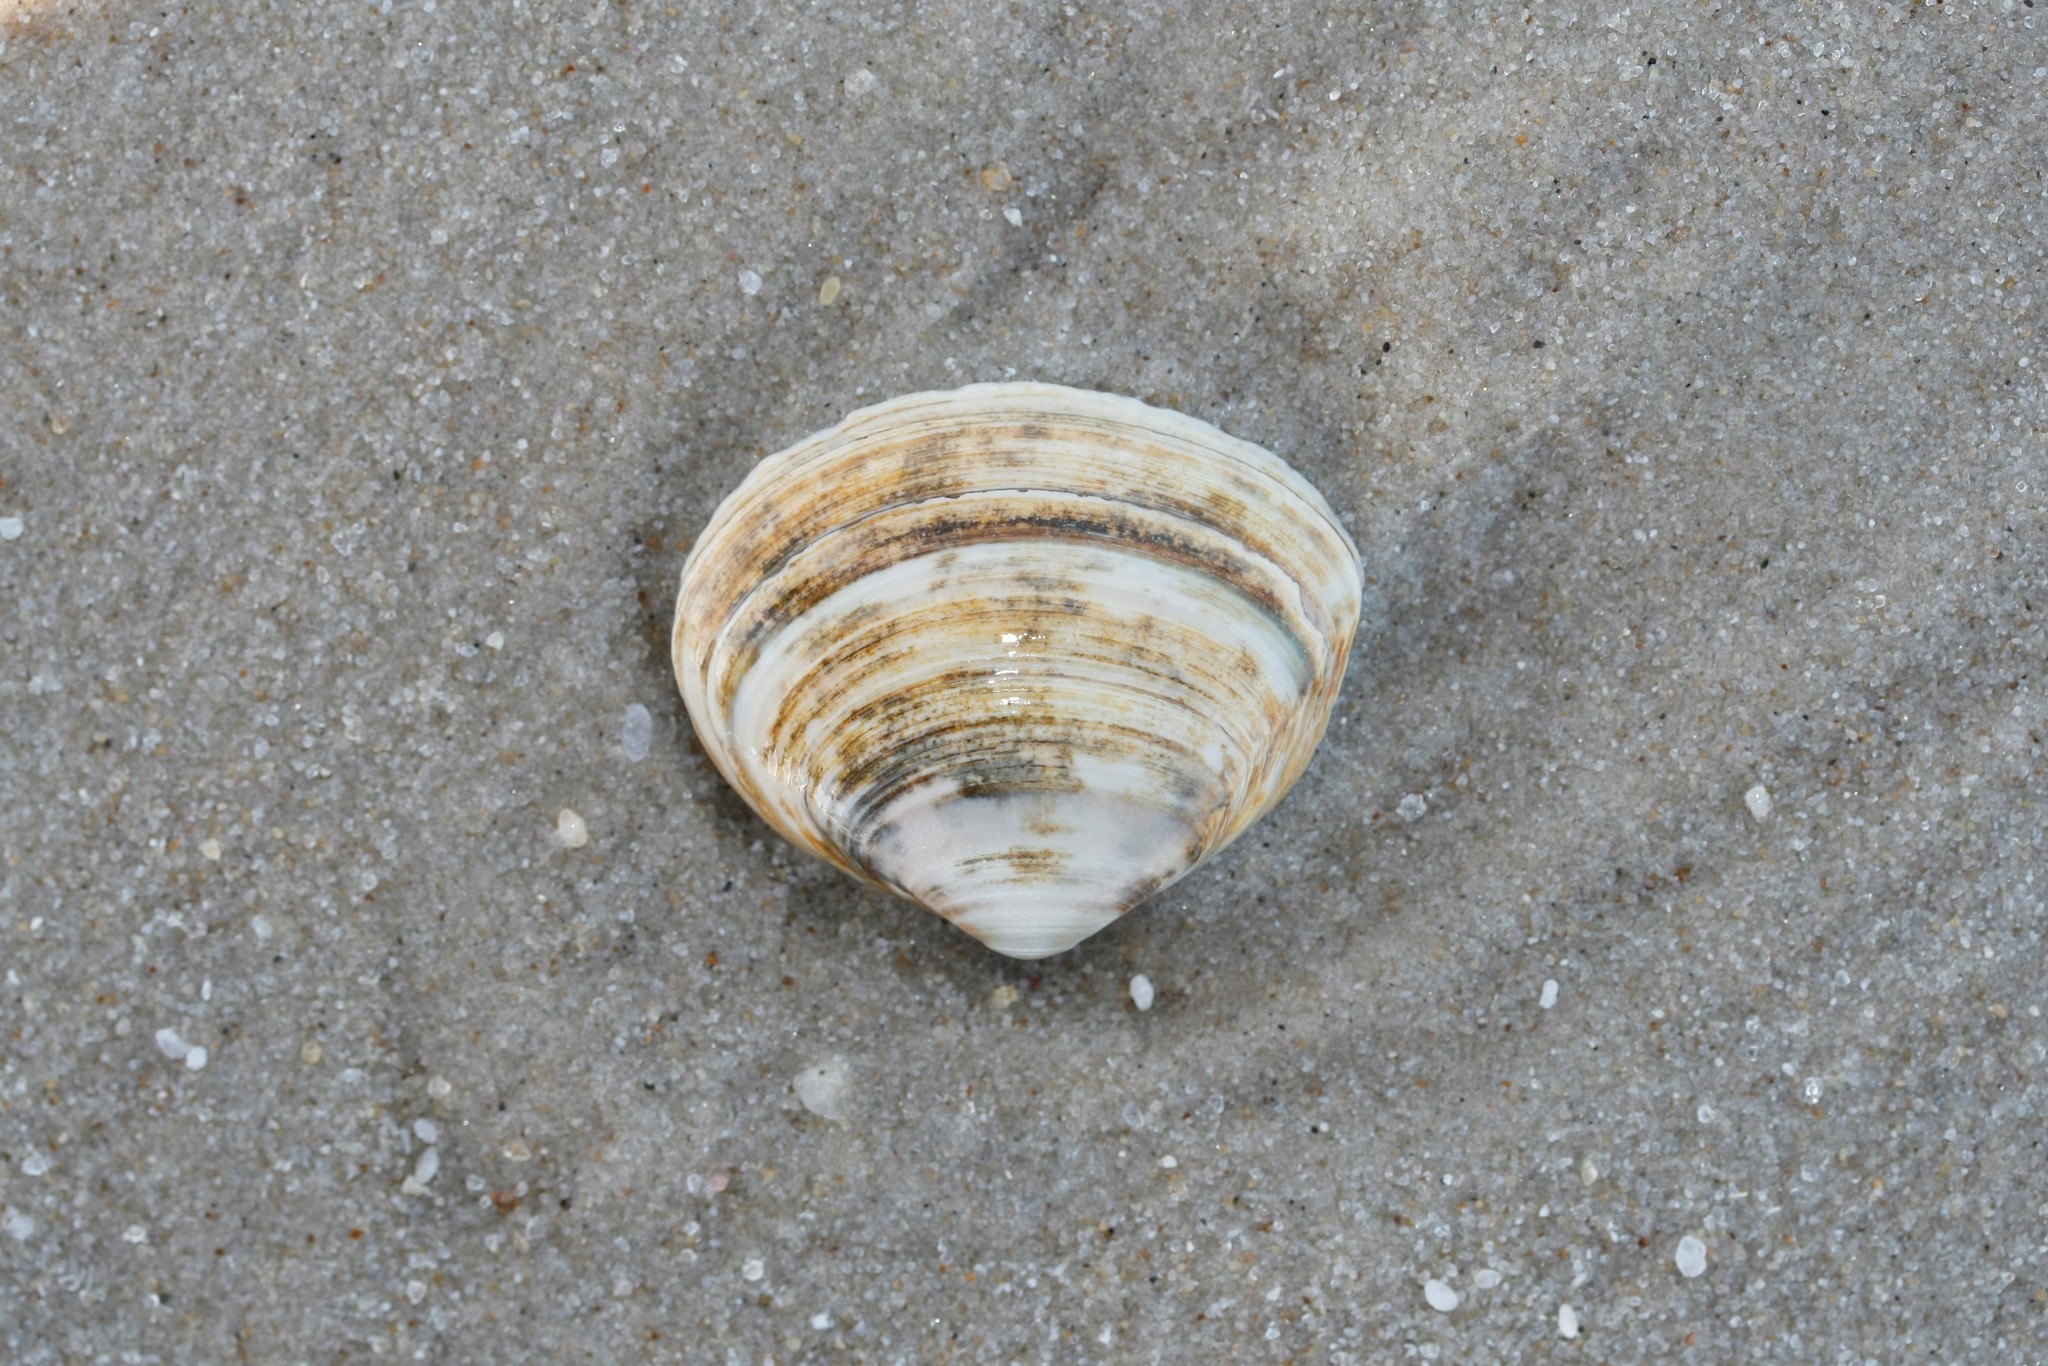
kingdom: Animalia
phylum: Mollusca
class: Bivalvia
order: Venerida
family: Mactridae
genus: Spisula
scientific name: Spisula solida
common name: Thick trough shell
